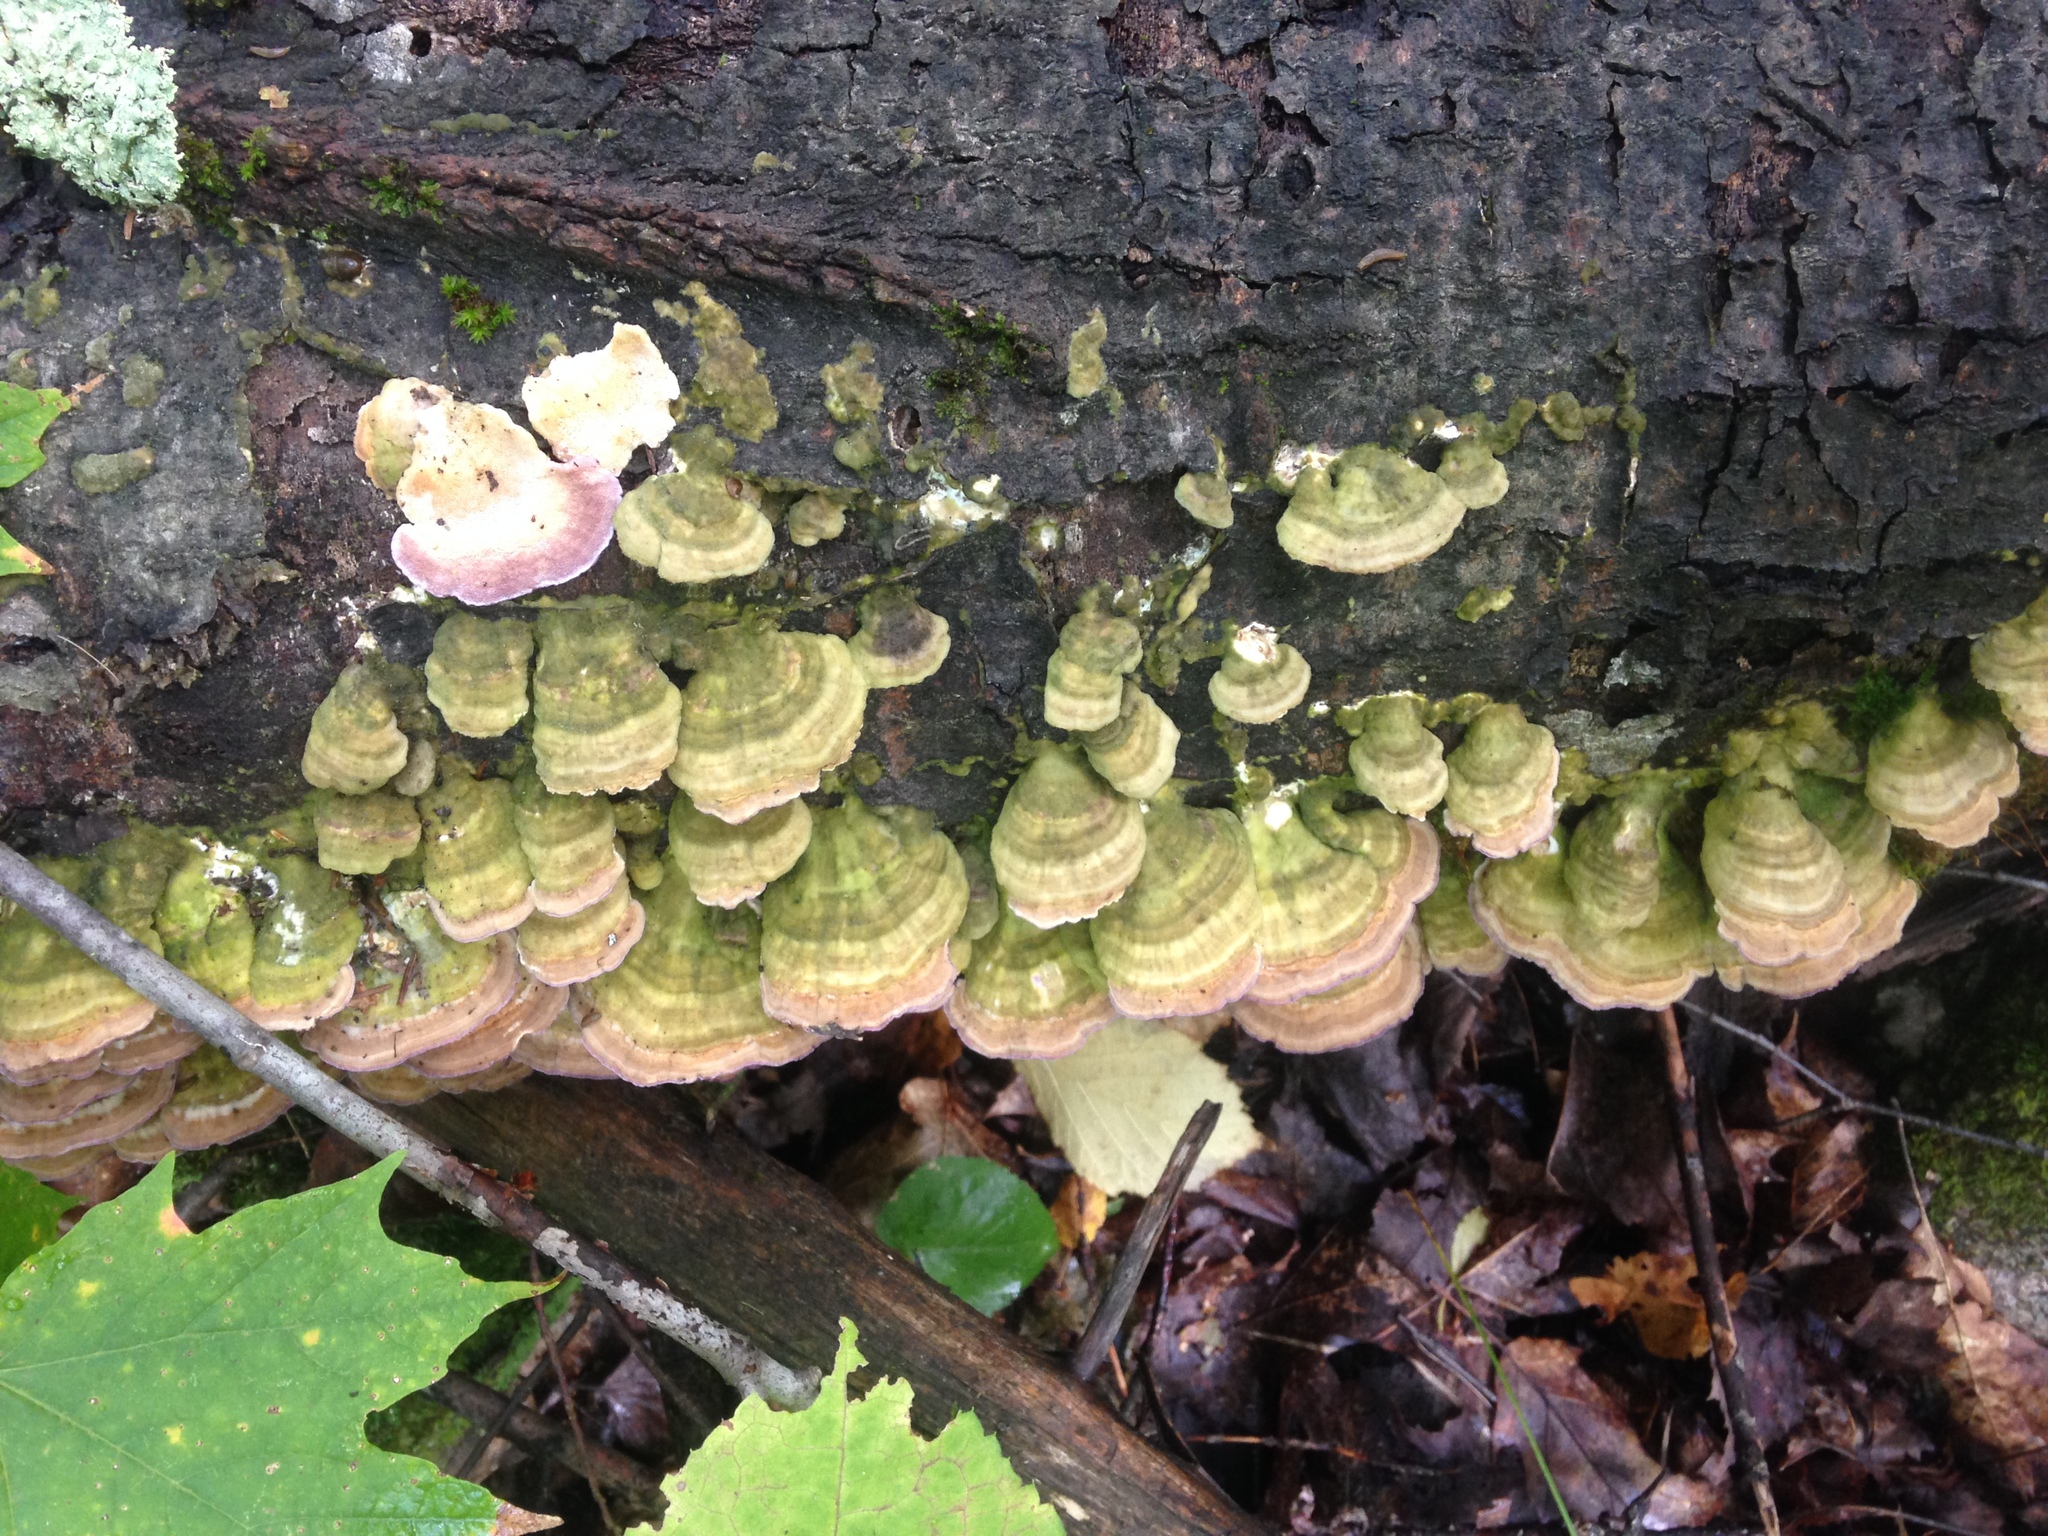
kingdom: Fungi
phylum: Basidiomycota
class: Agaricomycetes
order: Hymenochaetales
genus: Trichaptum
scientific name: Trichaptum subchartaceum
